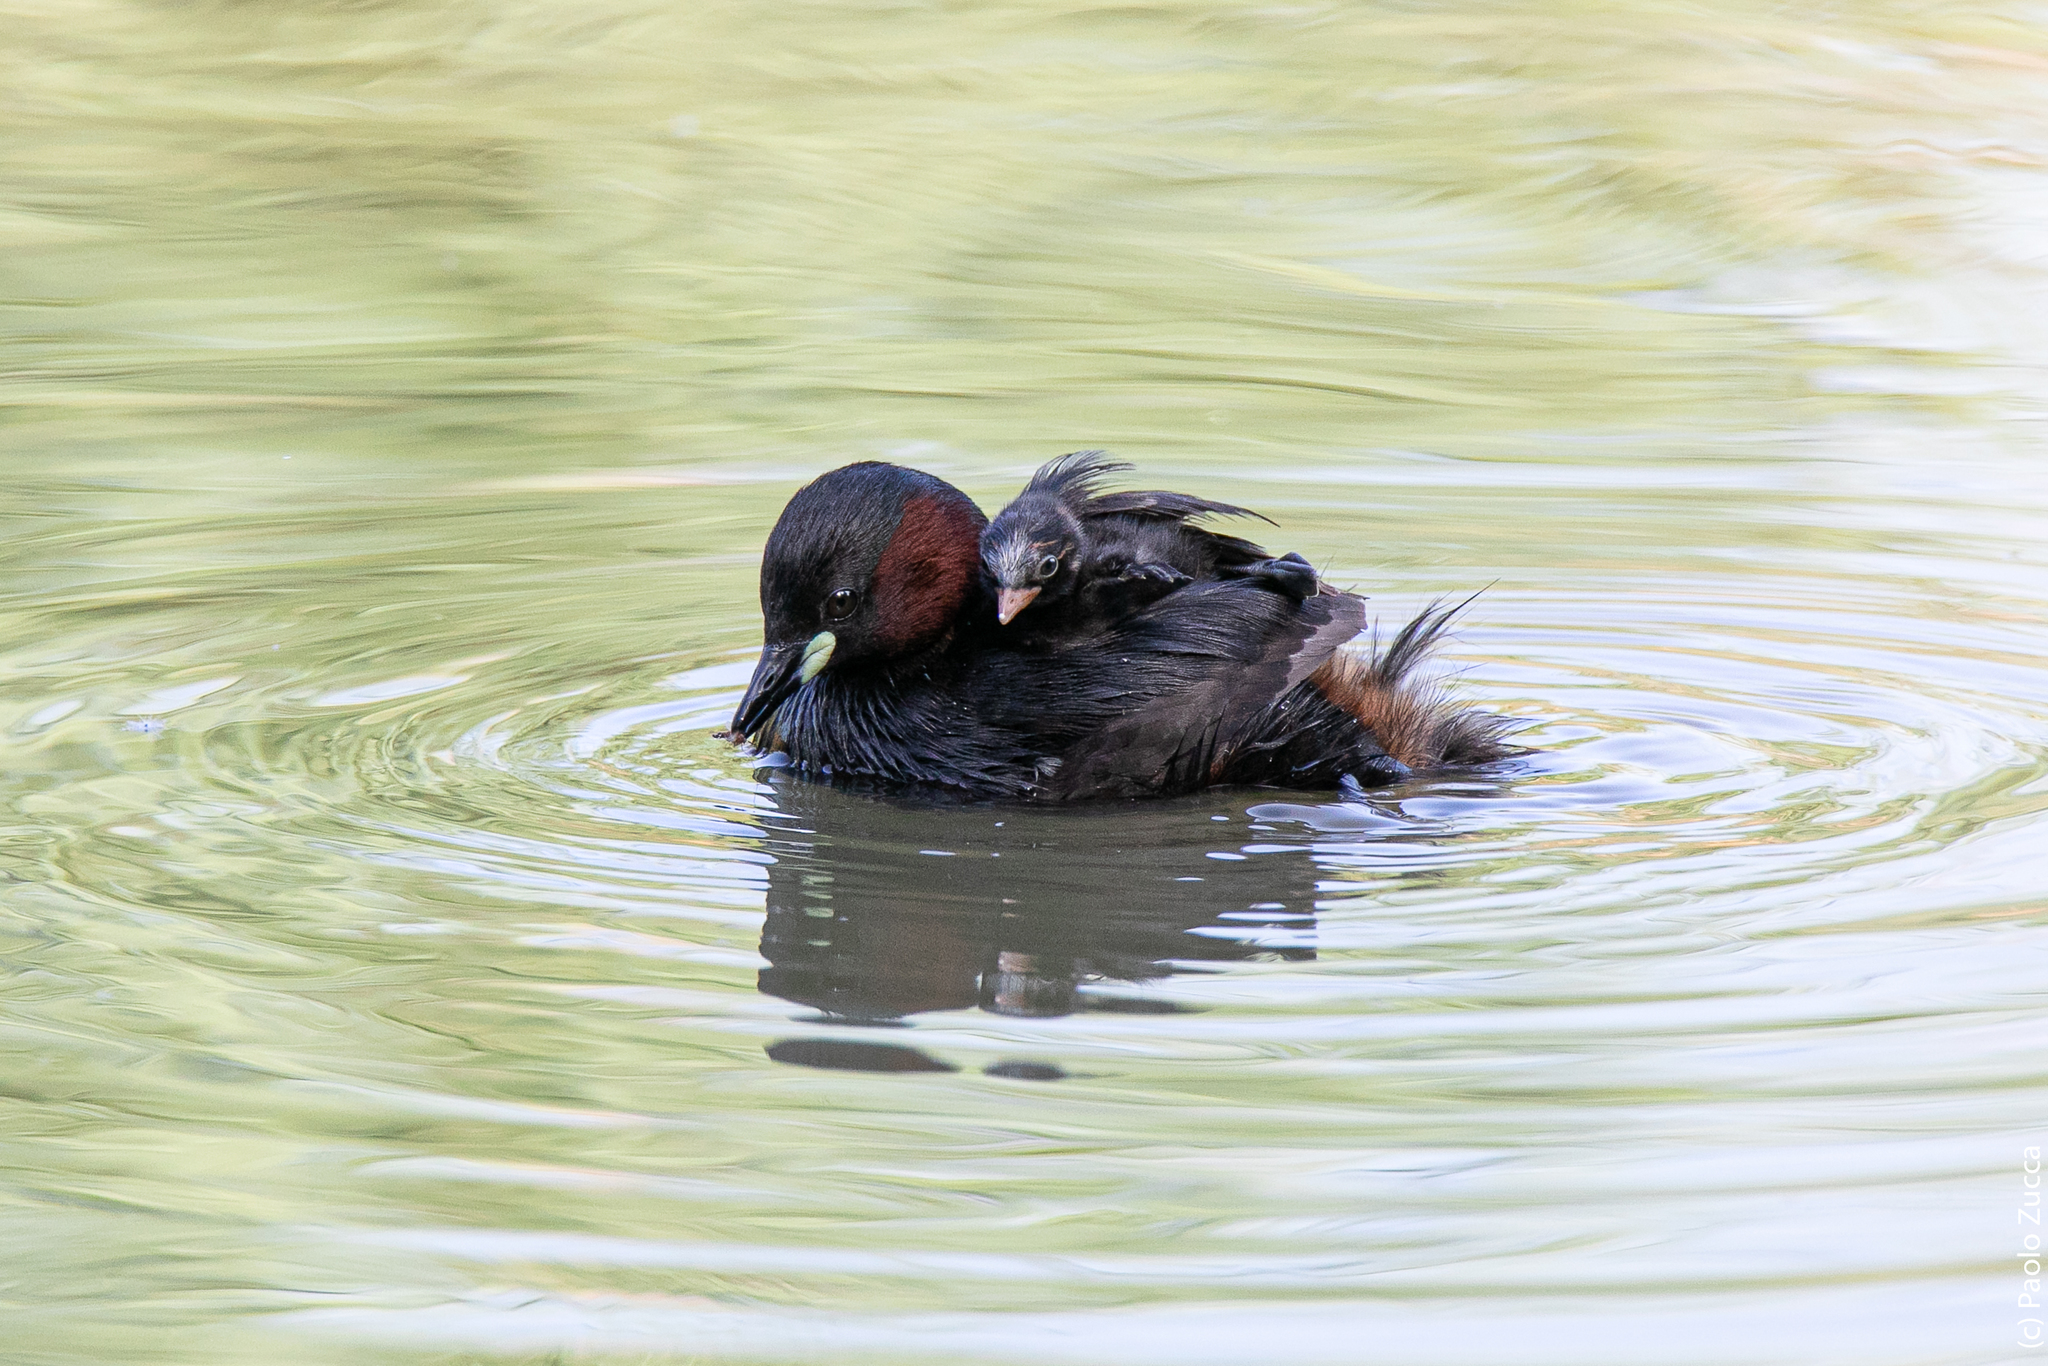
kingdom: Animalia
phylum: Chordata
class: Aves
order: Podicipediformes
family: Podicipedidae
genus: Tachybaptus
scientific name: Tachybaptus ruficollis
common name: Little grebe
